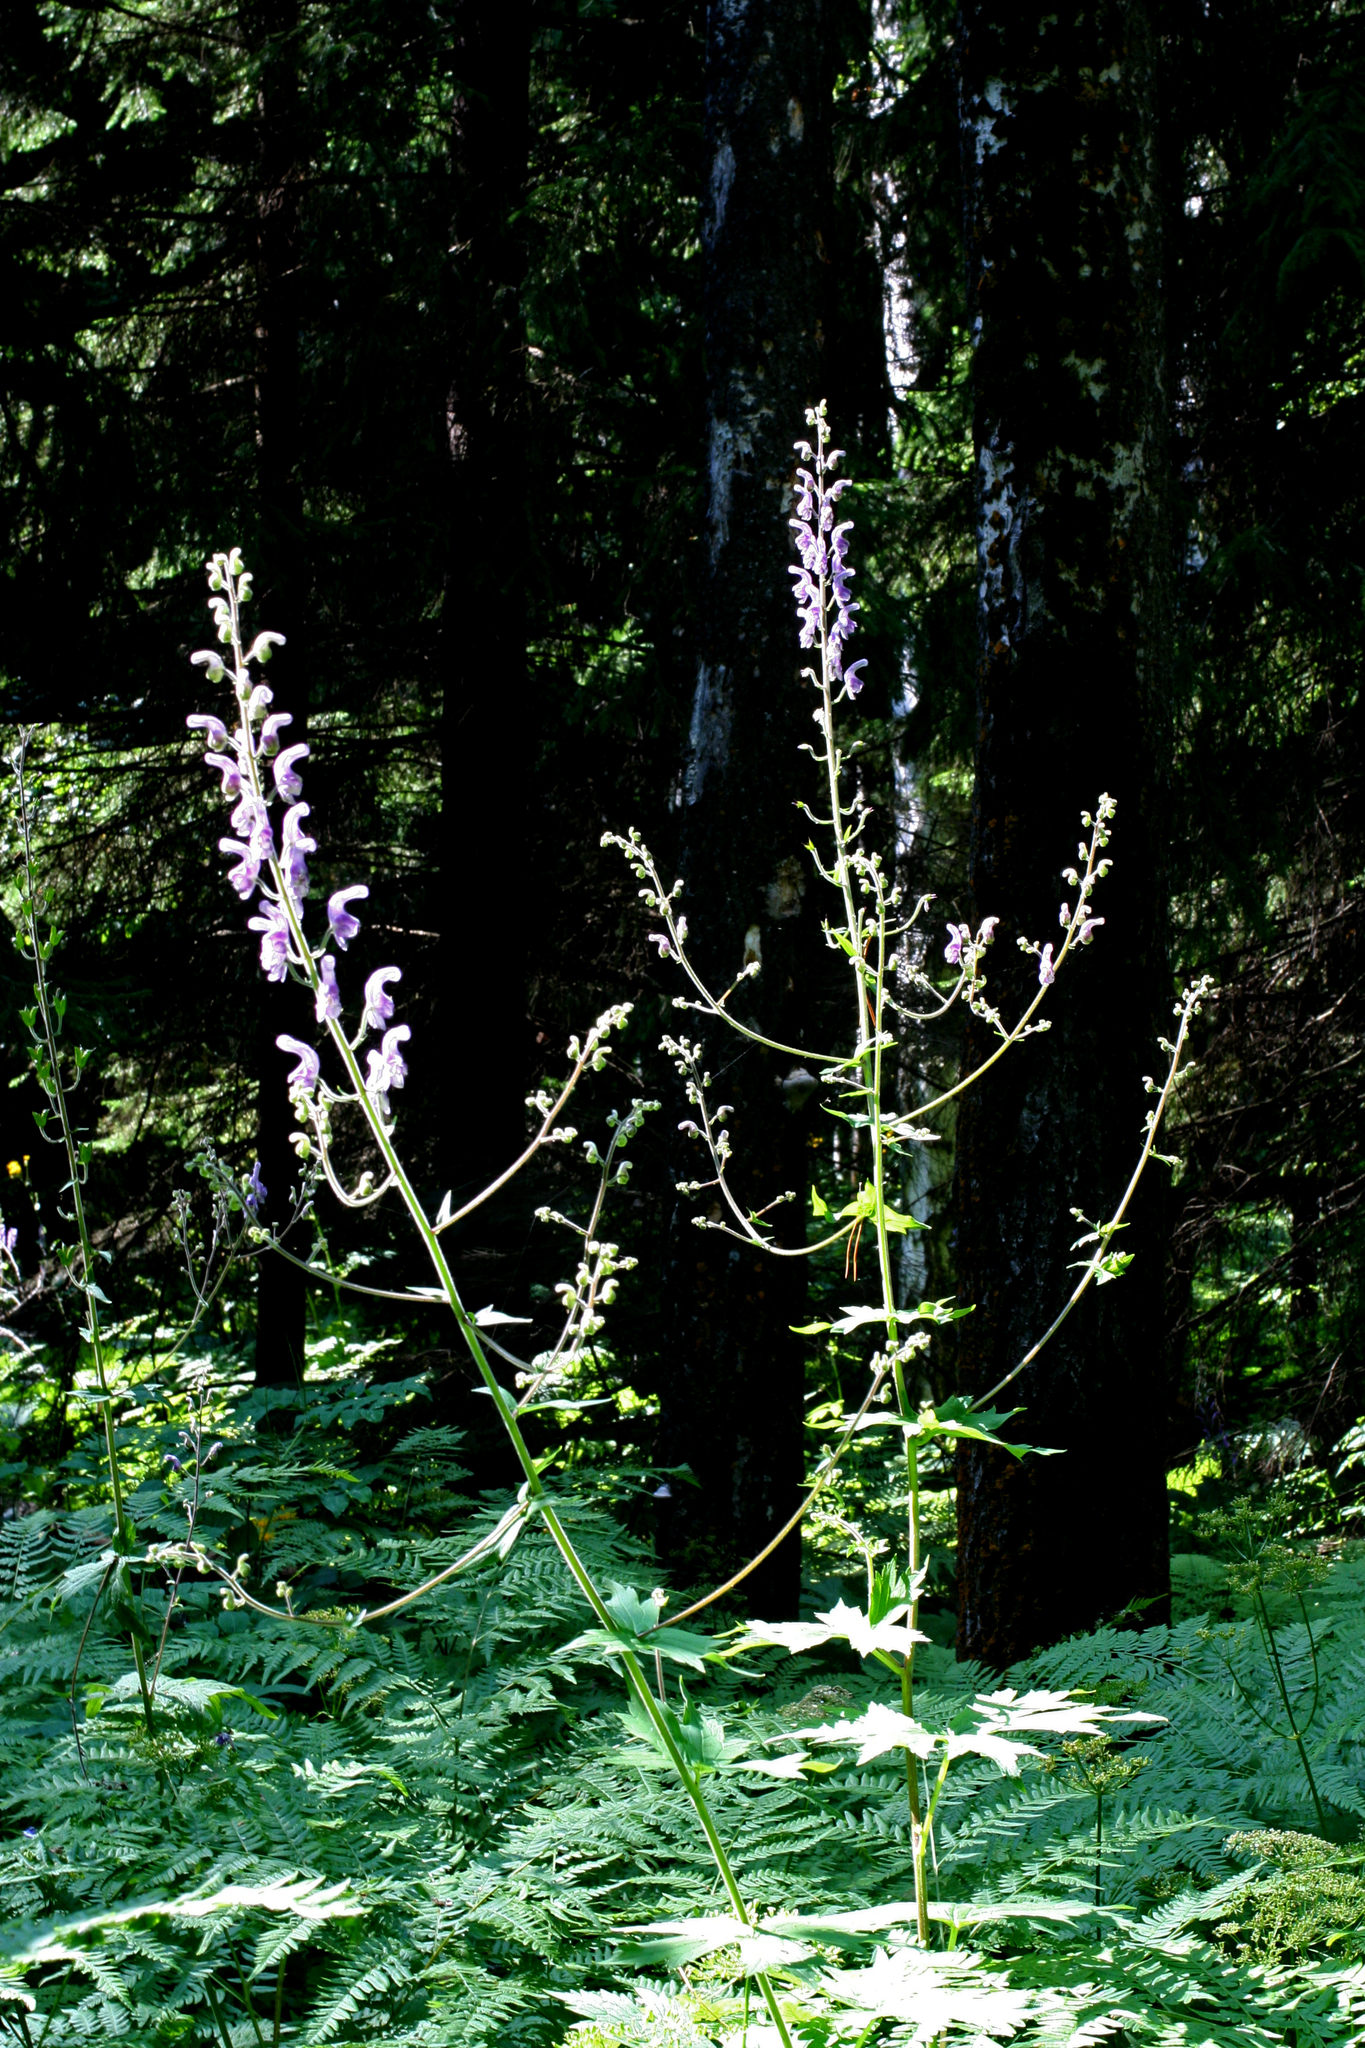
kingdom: Plantae
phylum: Tracheophyta
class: Magnoliopsida
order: Ranunculales
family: Ranunculaceae
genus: Aconitum
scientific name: Aconitum septentrionale
